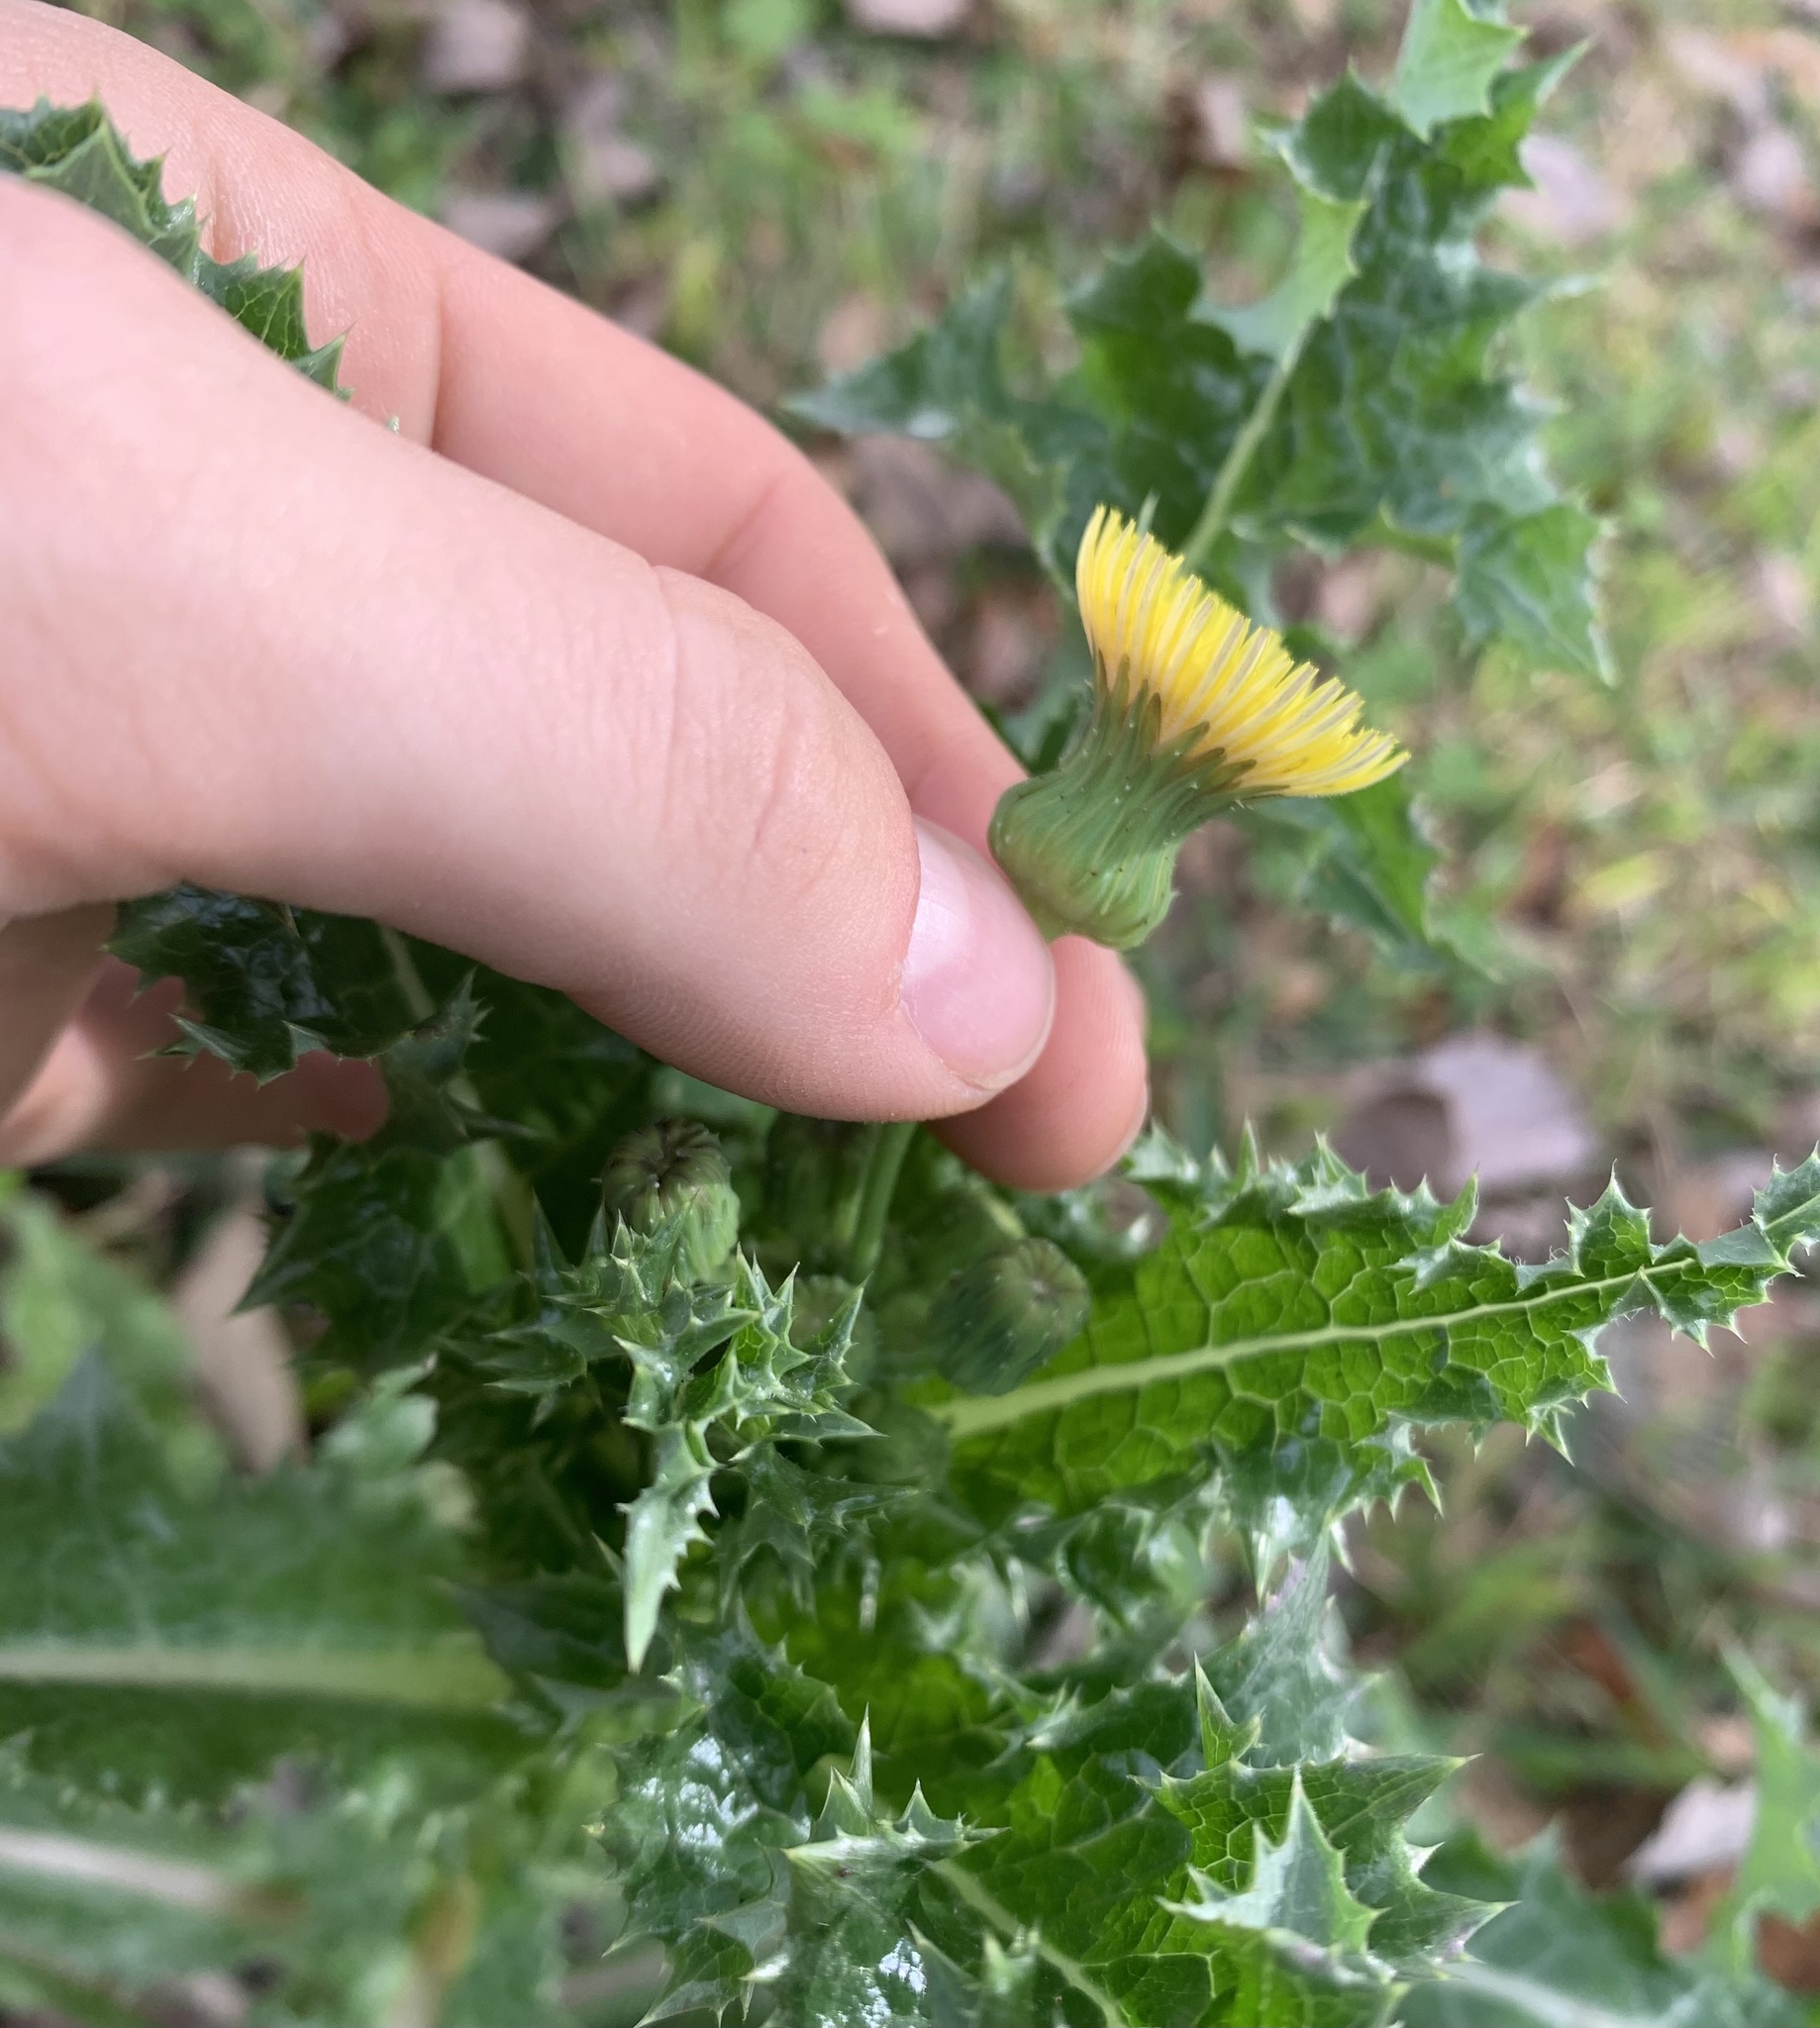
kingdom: Plantae
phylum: Tracheophyta
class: Magnoliopsida
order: Asterales
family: Asteraceae
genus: Sonchus
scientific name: Sonchus asper
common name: Prickly sow-thistle
